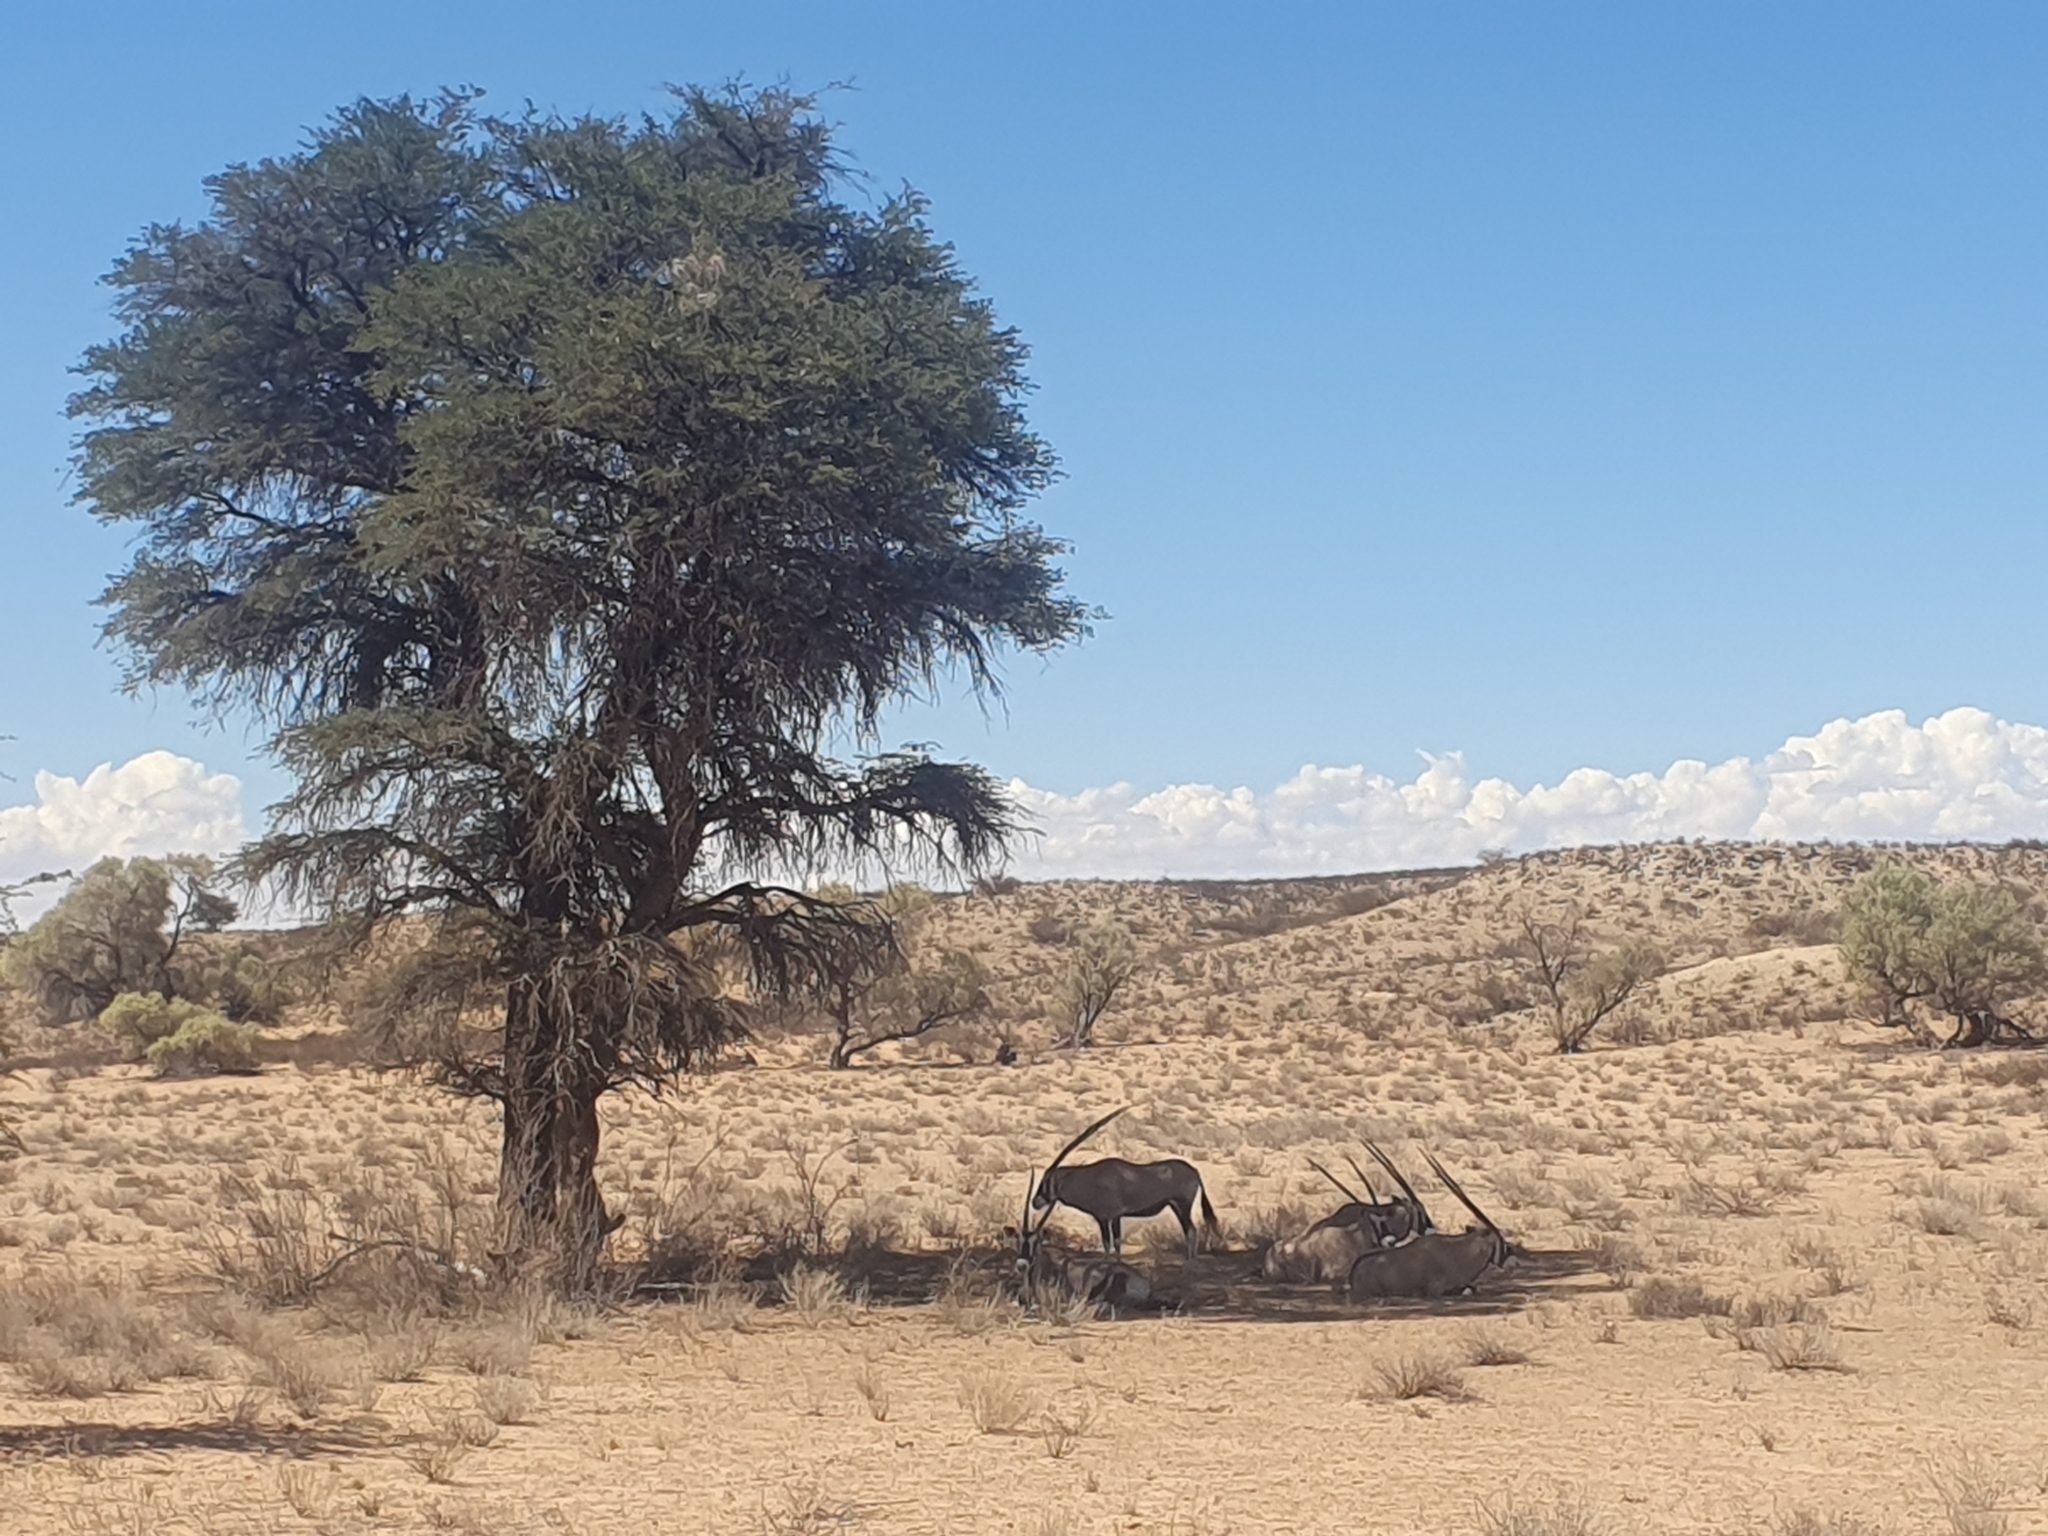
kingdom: Plantae
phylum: Tracheophyta
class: Magnoliopsida
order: Fabales
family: Fabaceae
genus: Vachellia
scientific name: Vachellia erioloba
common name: Camel thorn
